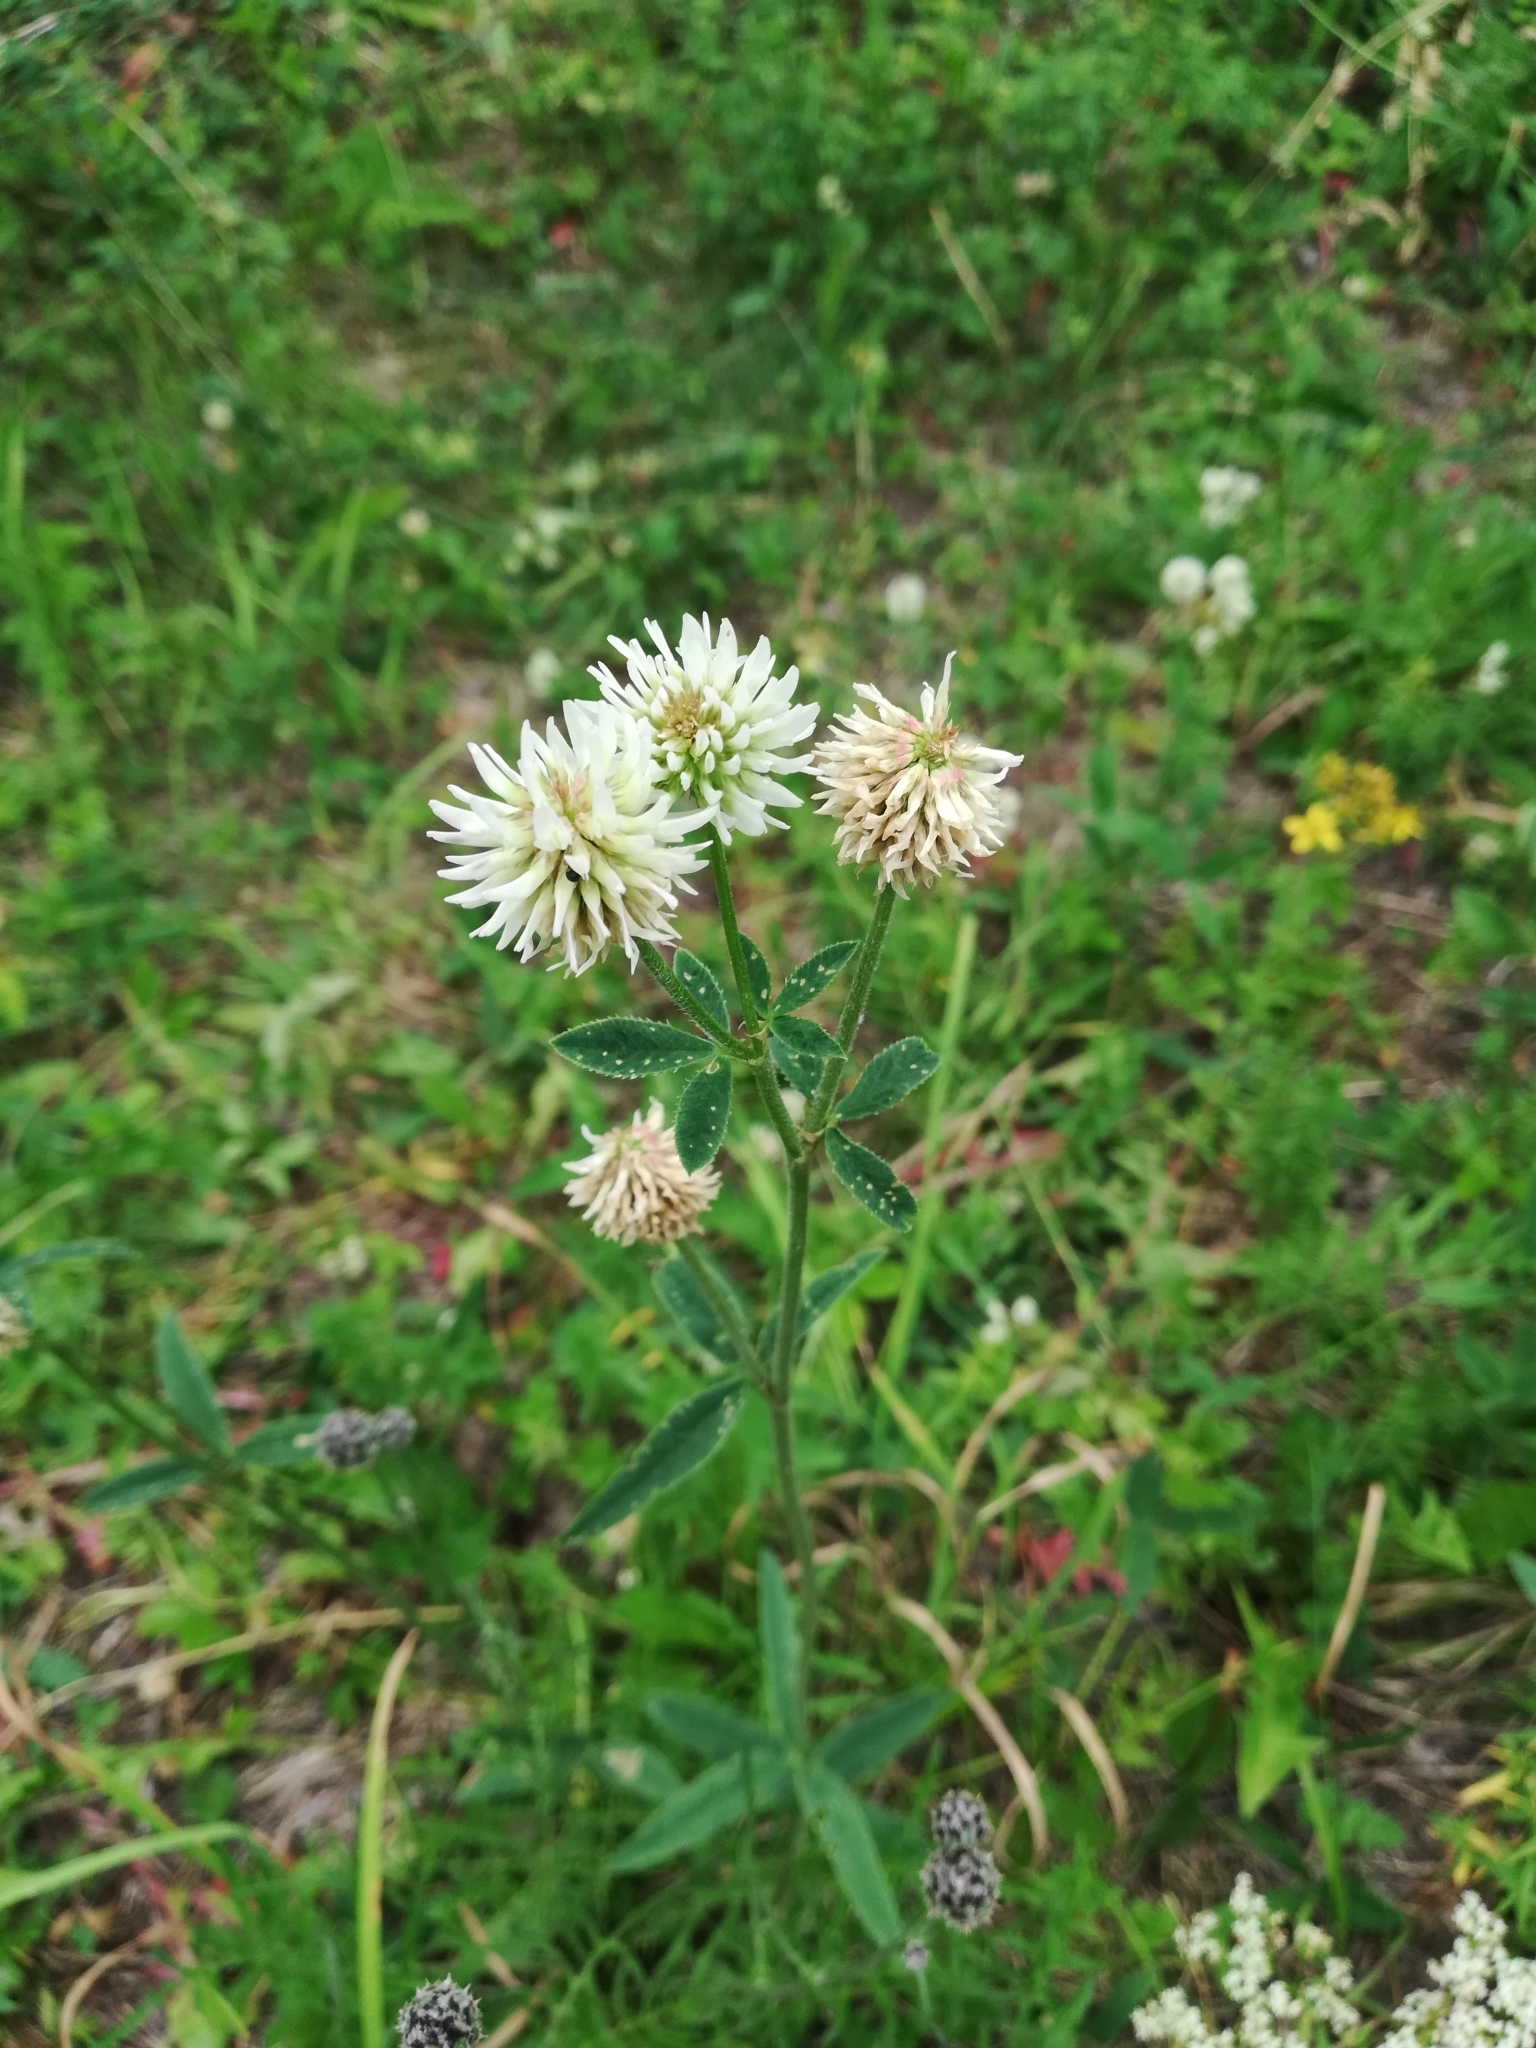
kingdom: Plantae
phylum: Tracheophyta
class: Magnoliopsida
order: Fabales
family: Fabaceae
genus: Trifolium
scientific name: Trifolium montanum
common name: Mountain clover
